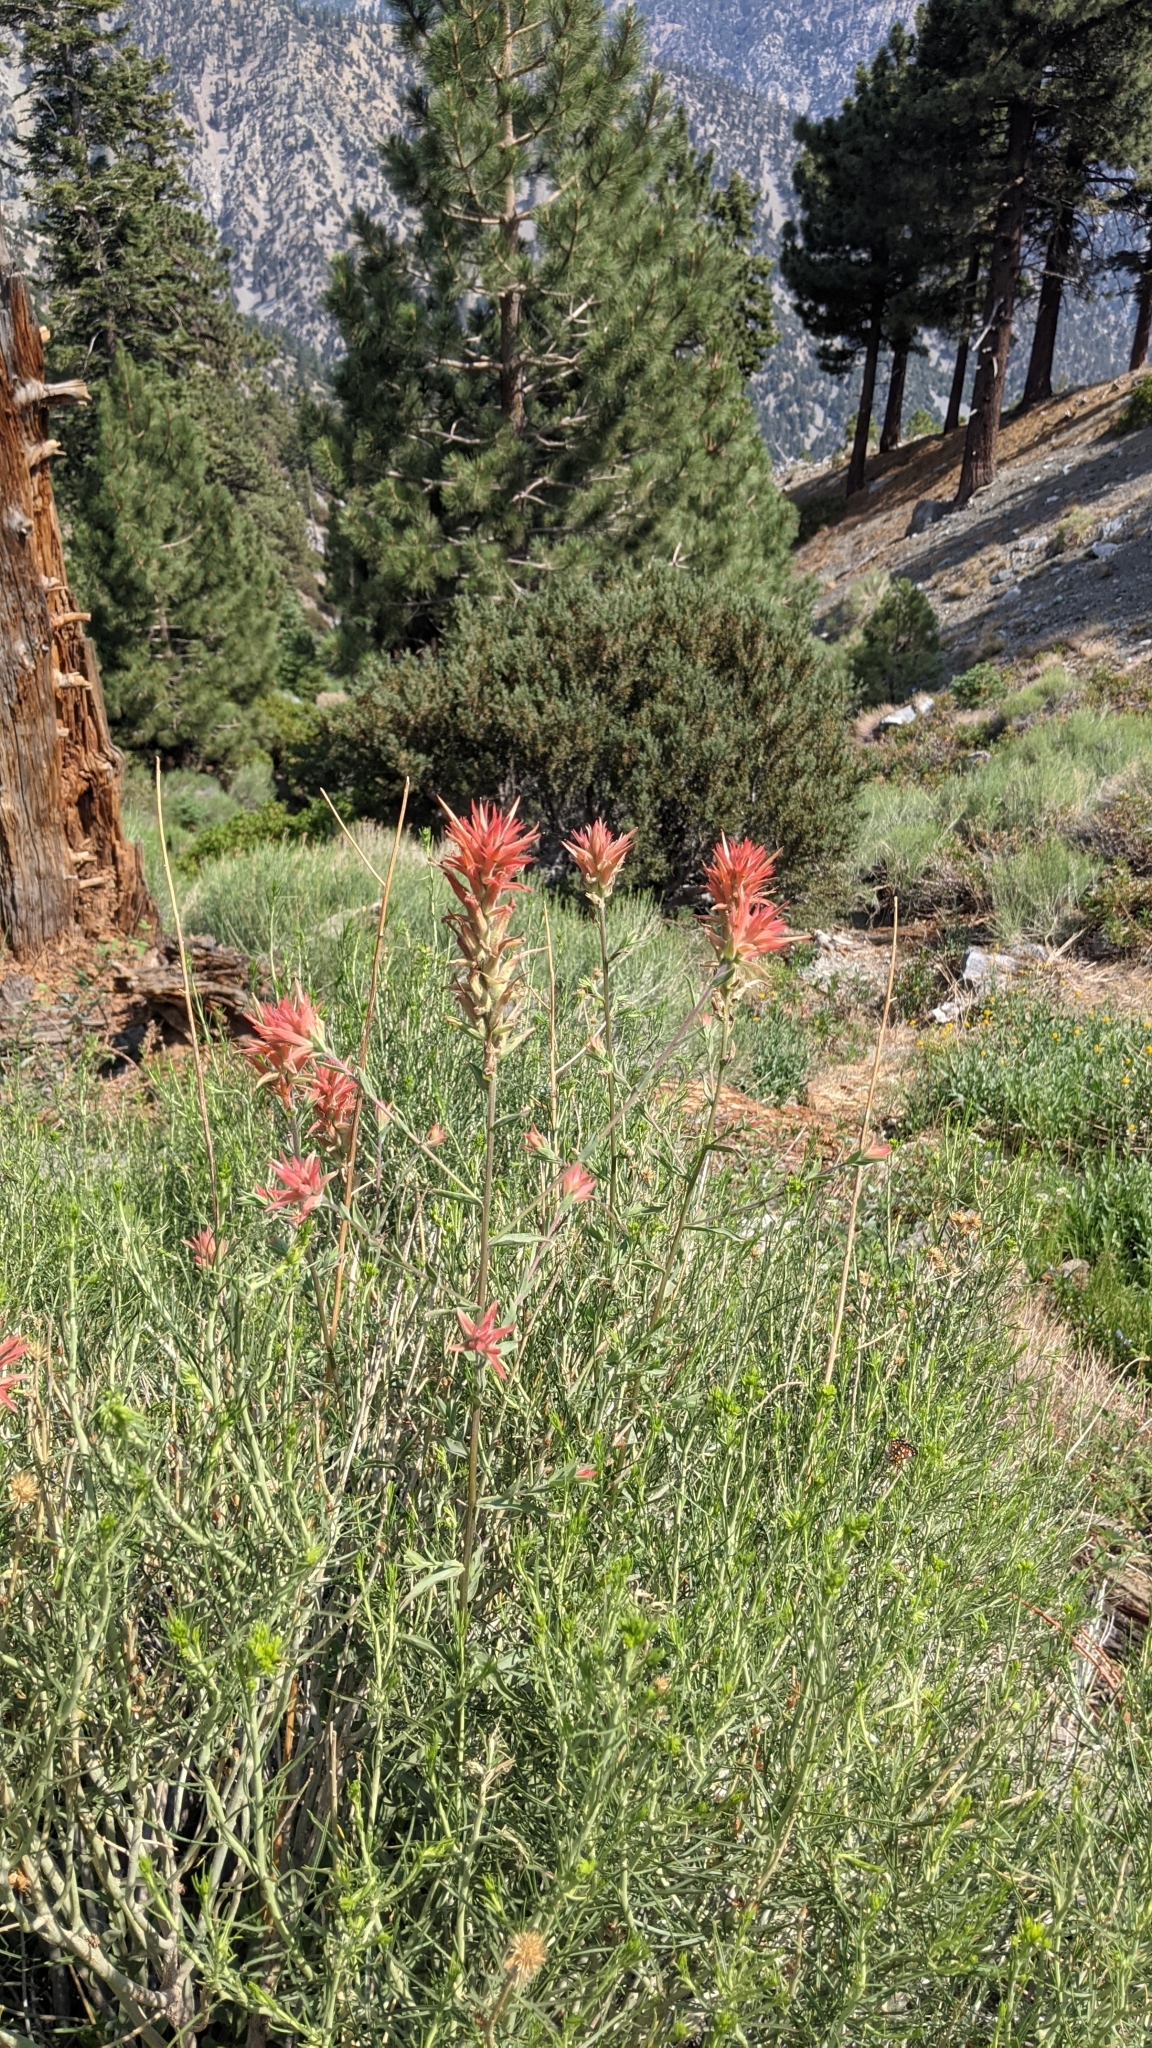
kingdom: Plantae
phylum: Tracheophyta
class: Magnoliopsida
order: Lamiales
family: Orobanchaceae
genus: Castilleja
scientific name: Castilleja miniata
